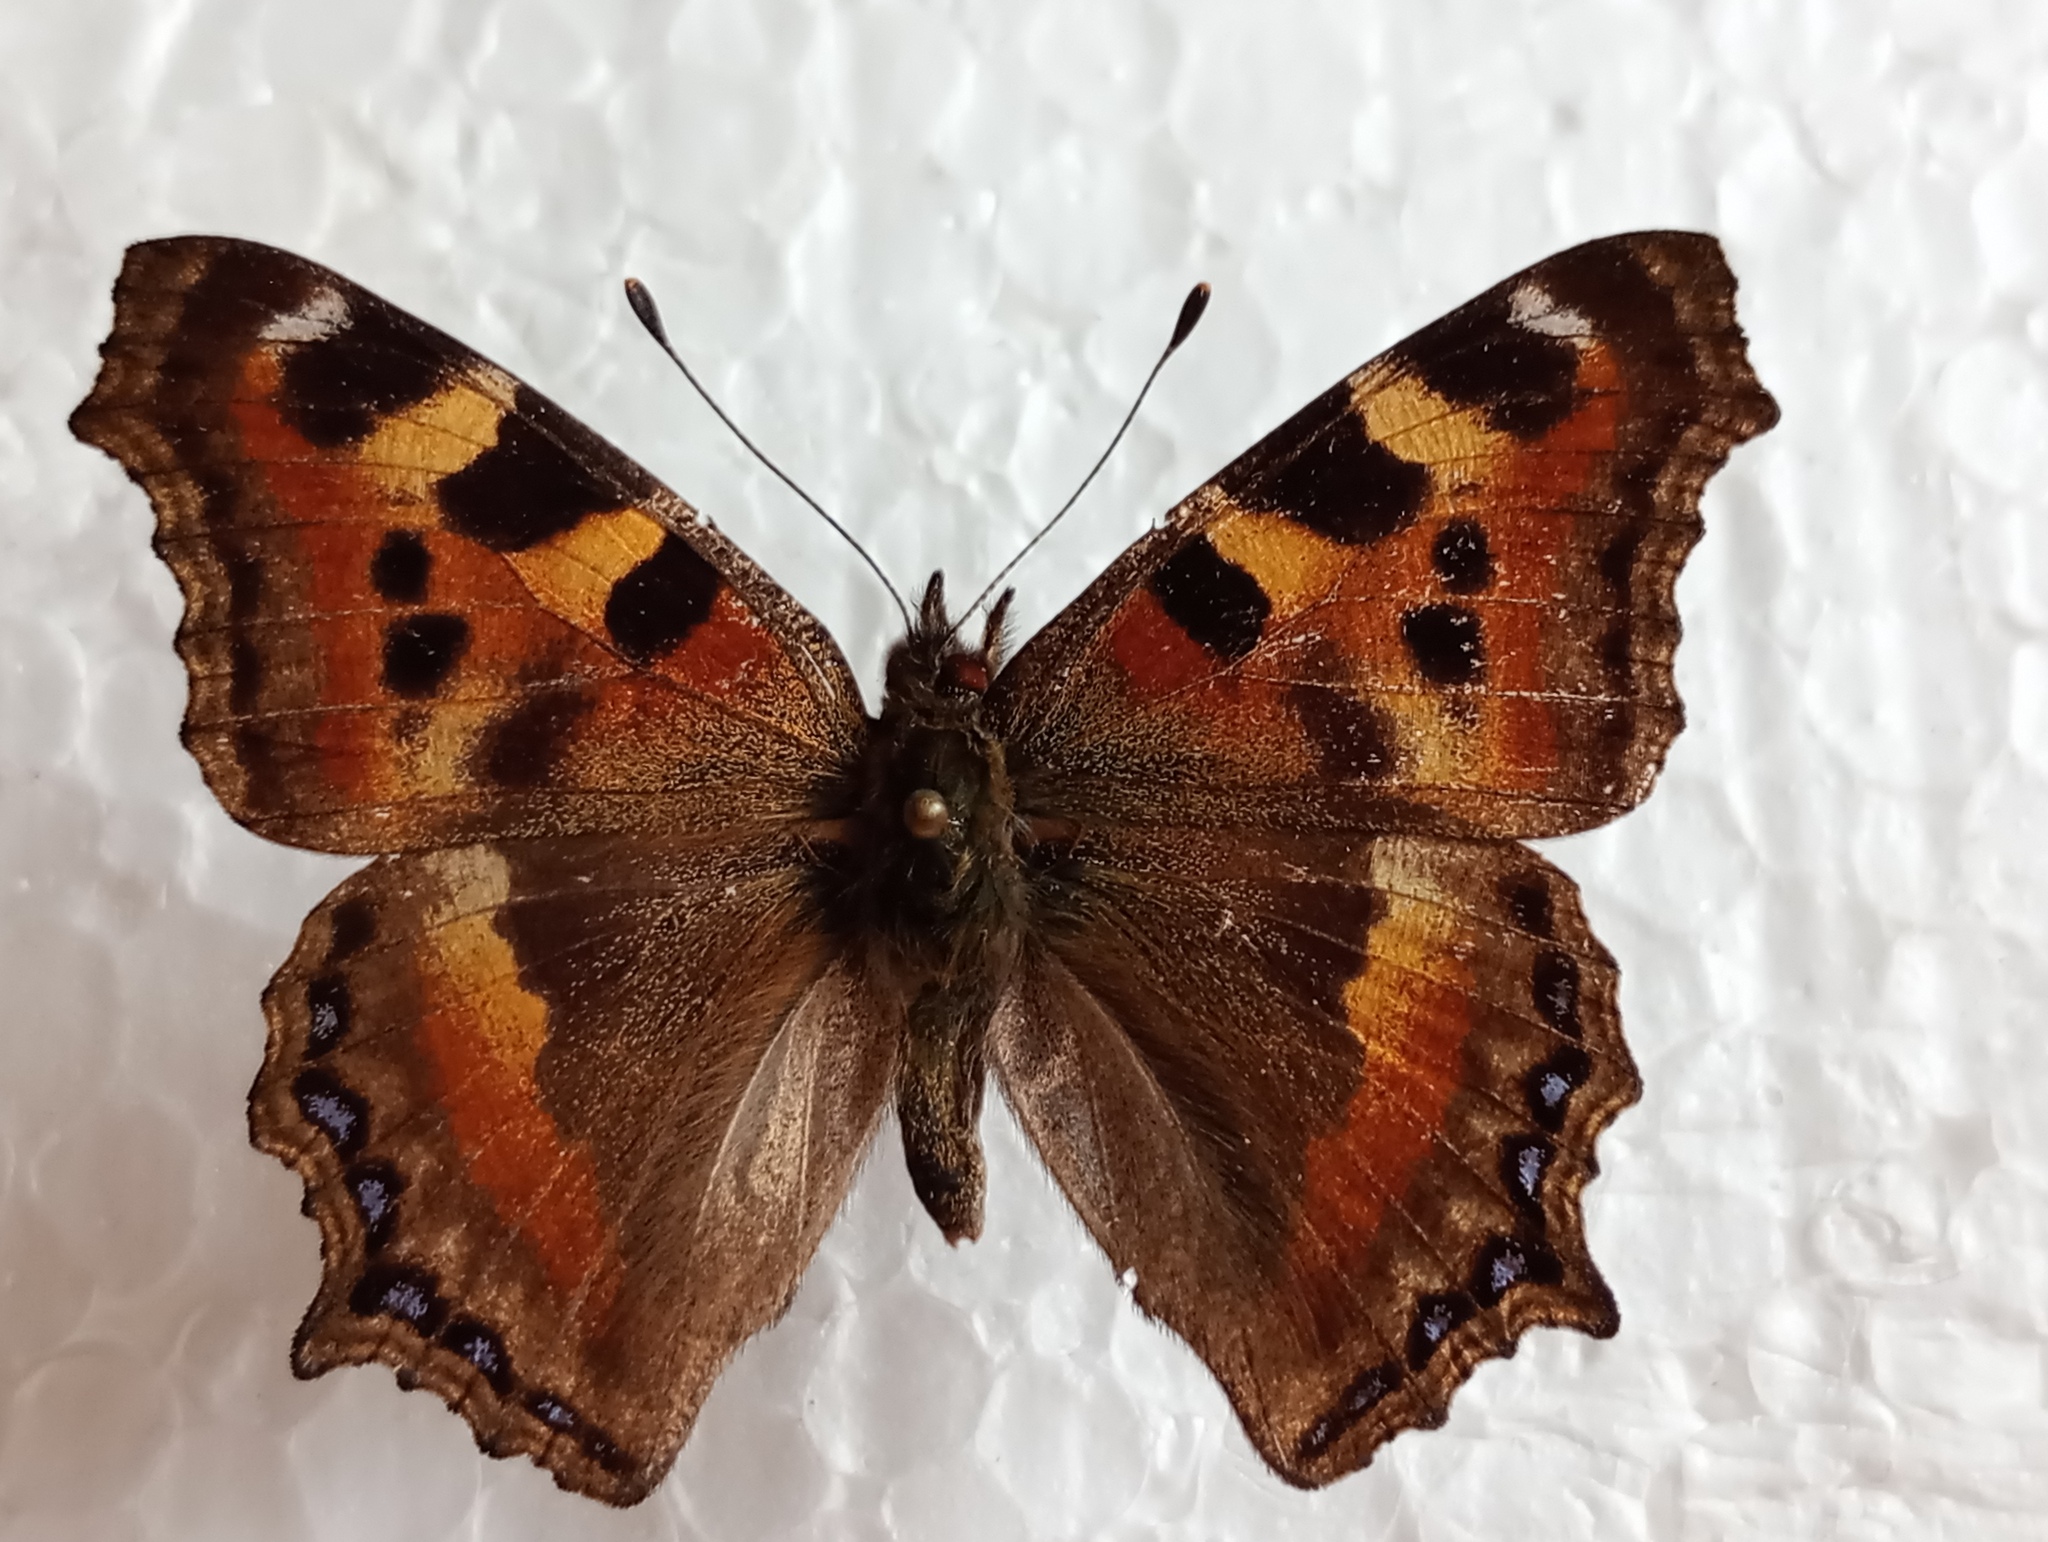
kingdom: Animalia
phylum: Arthropoda
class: Insecta
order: Lepidoptera
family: Nymphalidae
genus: Aglais
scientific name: Aglais caschmirensis
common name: Indian tortoiseshell
